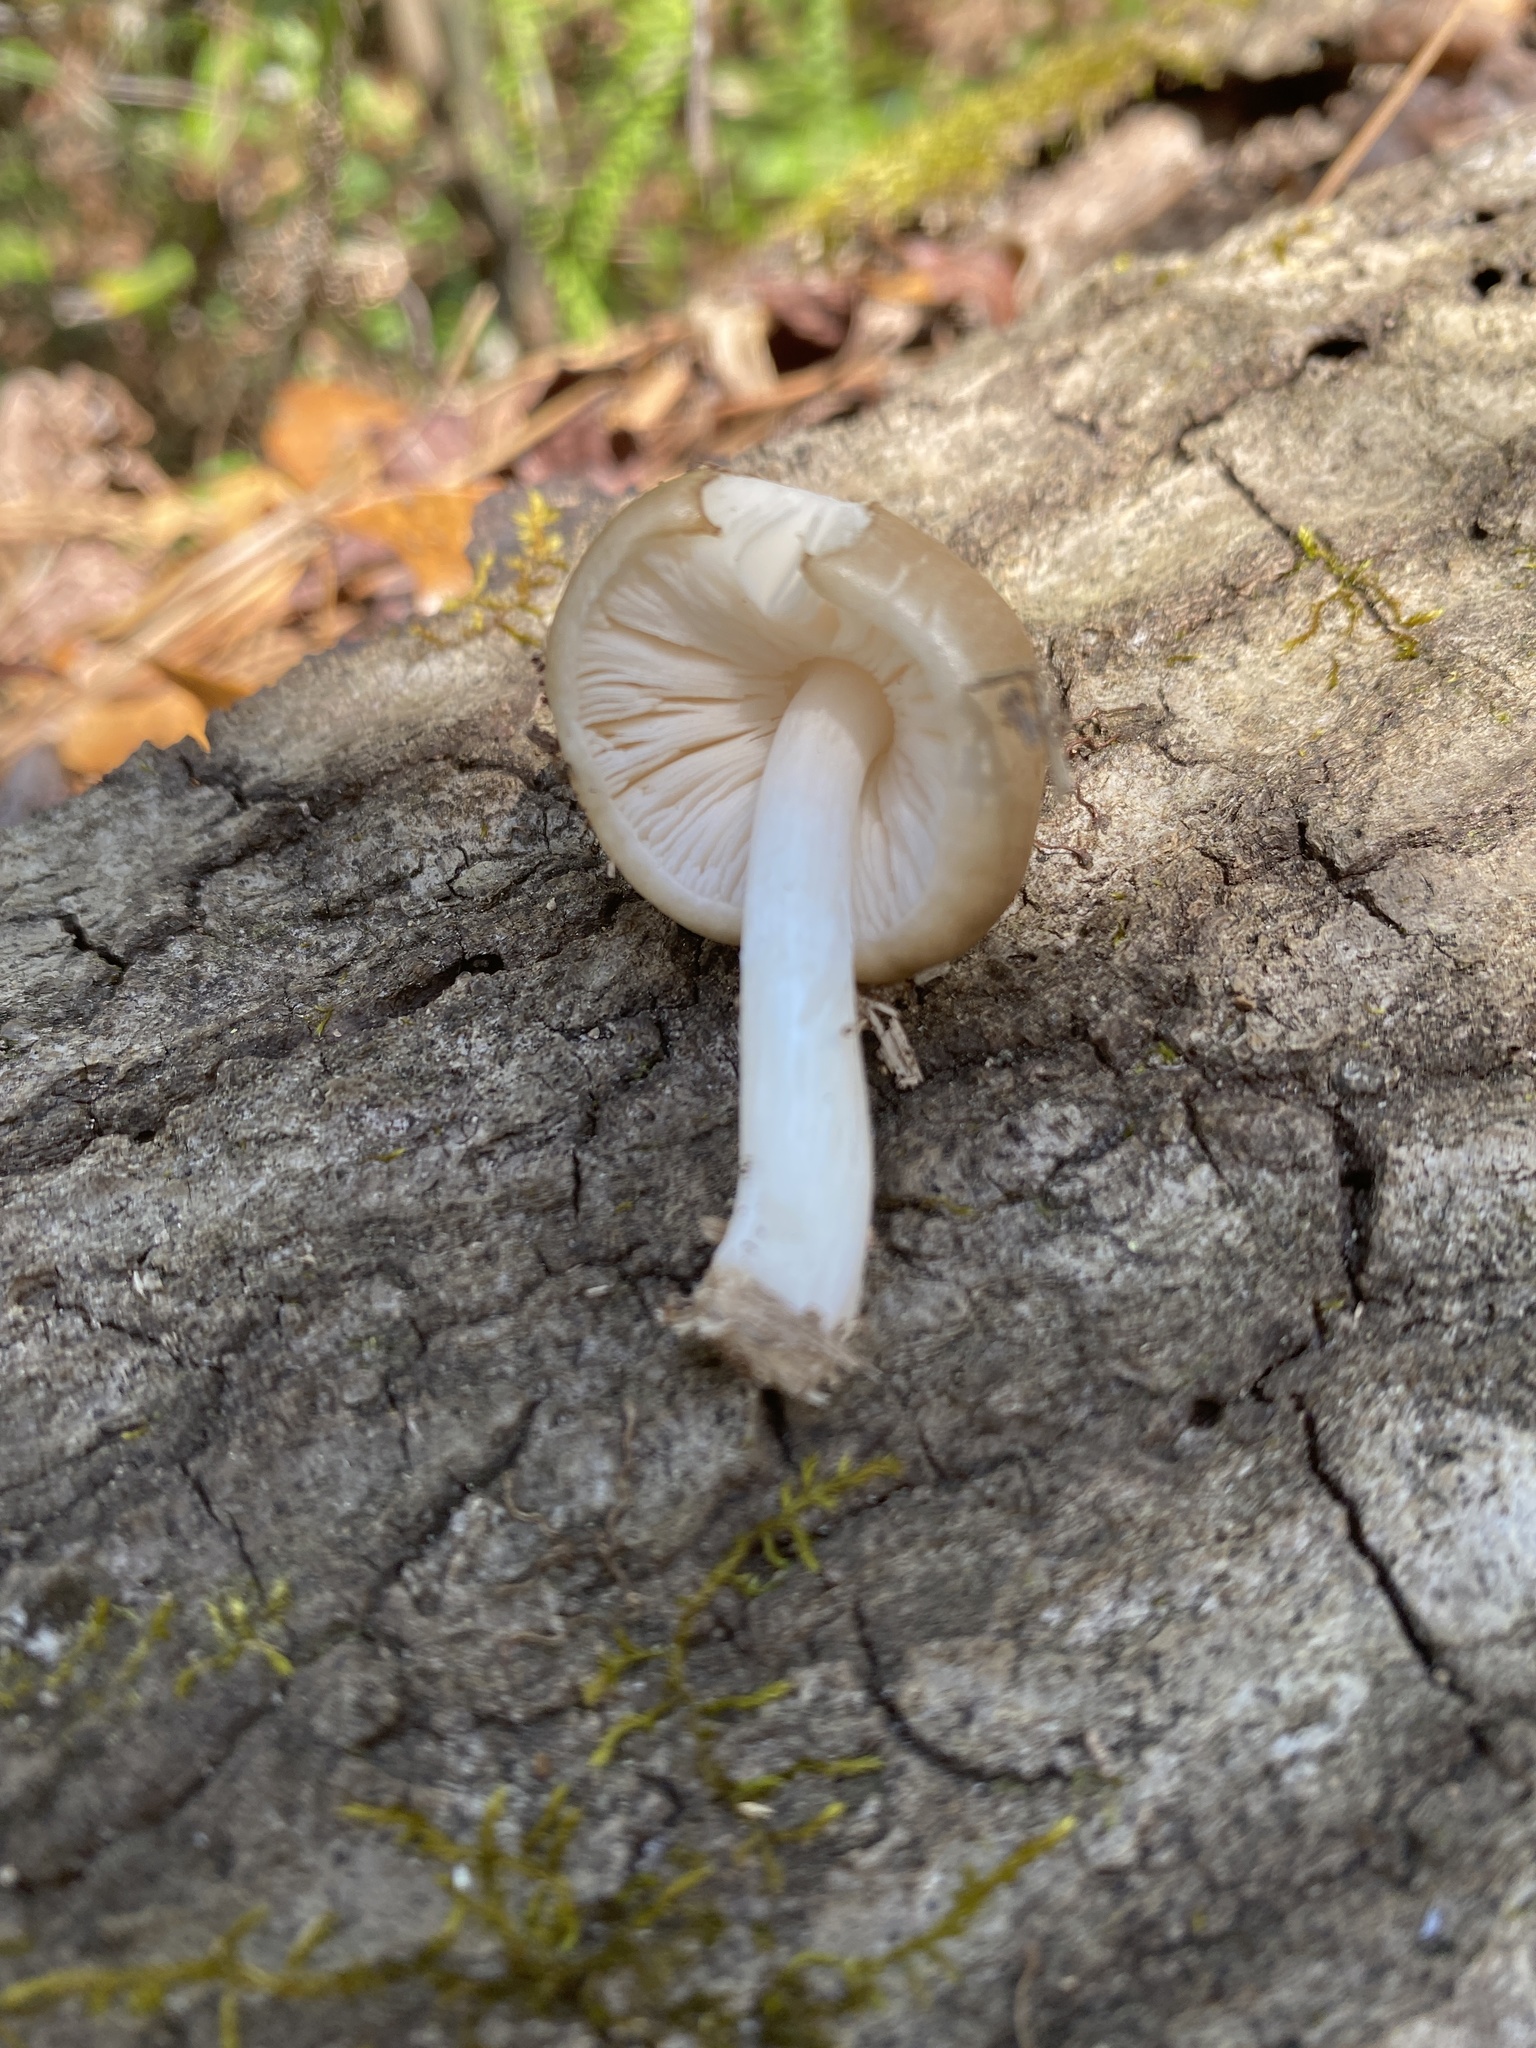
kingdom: Fungi
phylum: Basidiomycota
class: Agaricomycetes
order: Agaricales
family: Pluteaceae
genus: Pluteus
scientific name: Pluteus cervinus
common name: Deer shield
